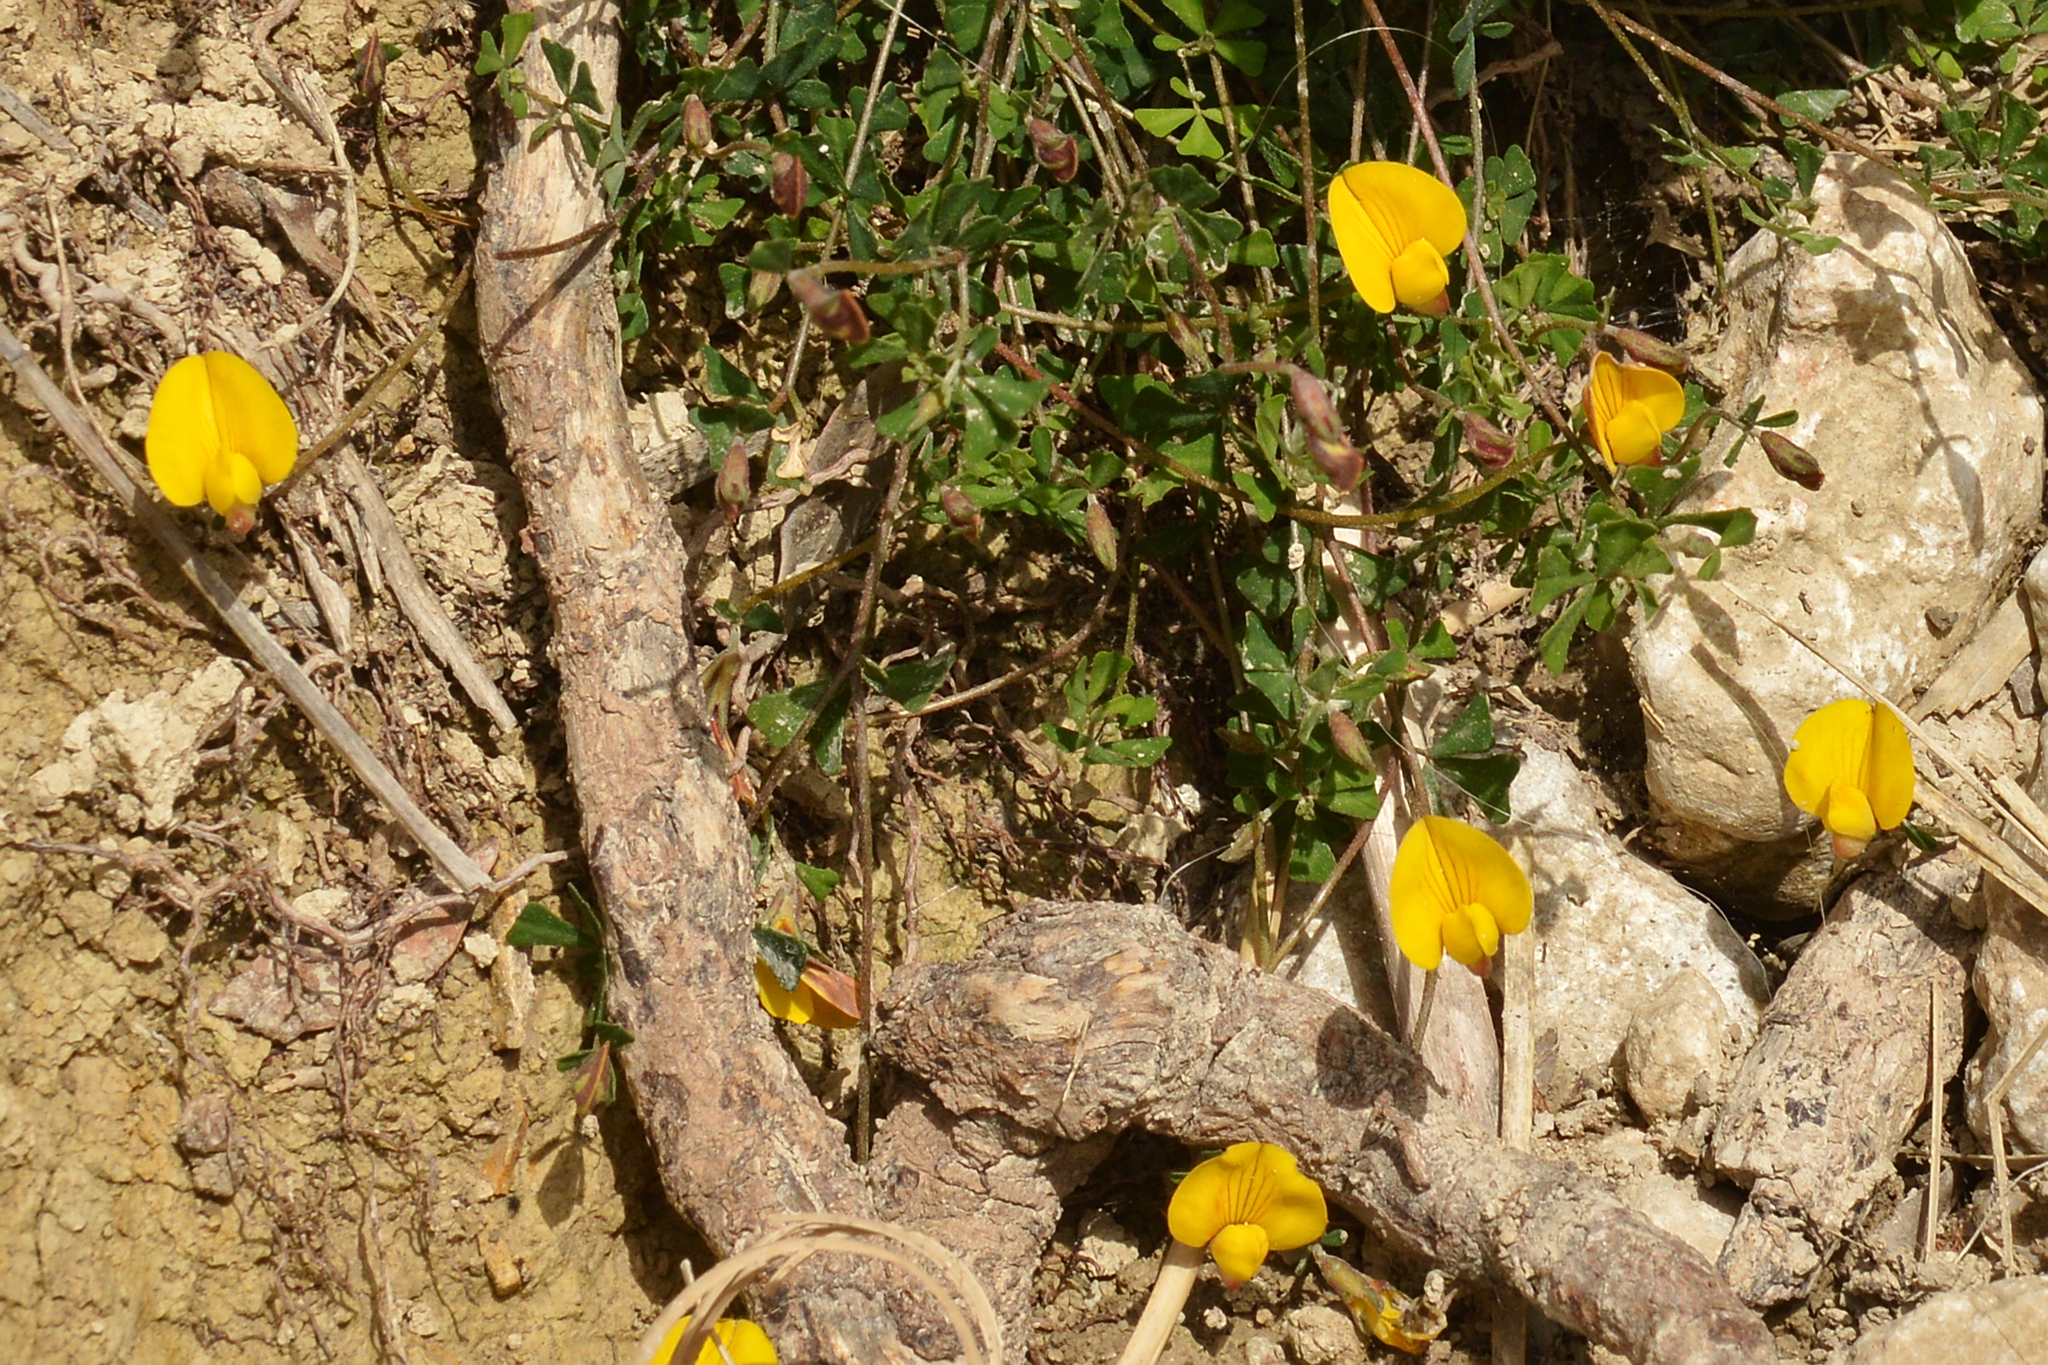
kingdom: Plantae
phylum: Tracheophyta
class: Magnoliopsida
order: Fabales
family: Fabaceae
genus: Lotus
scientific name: Lotus tetraphyllus
